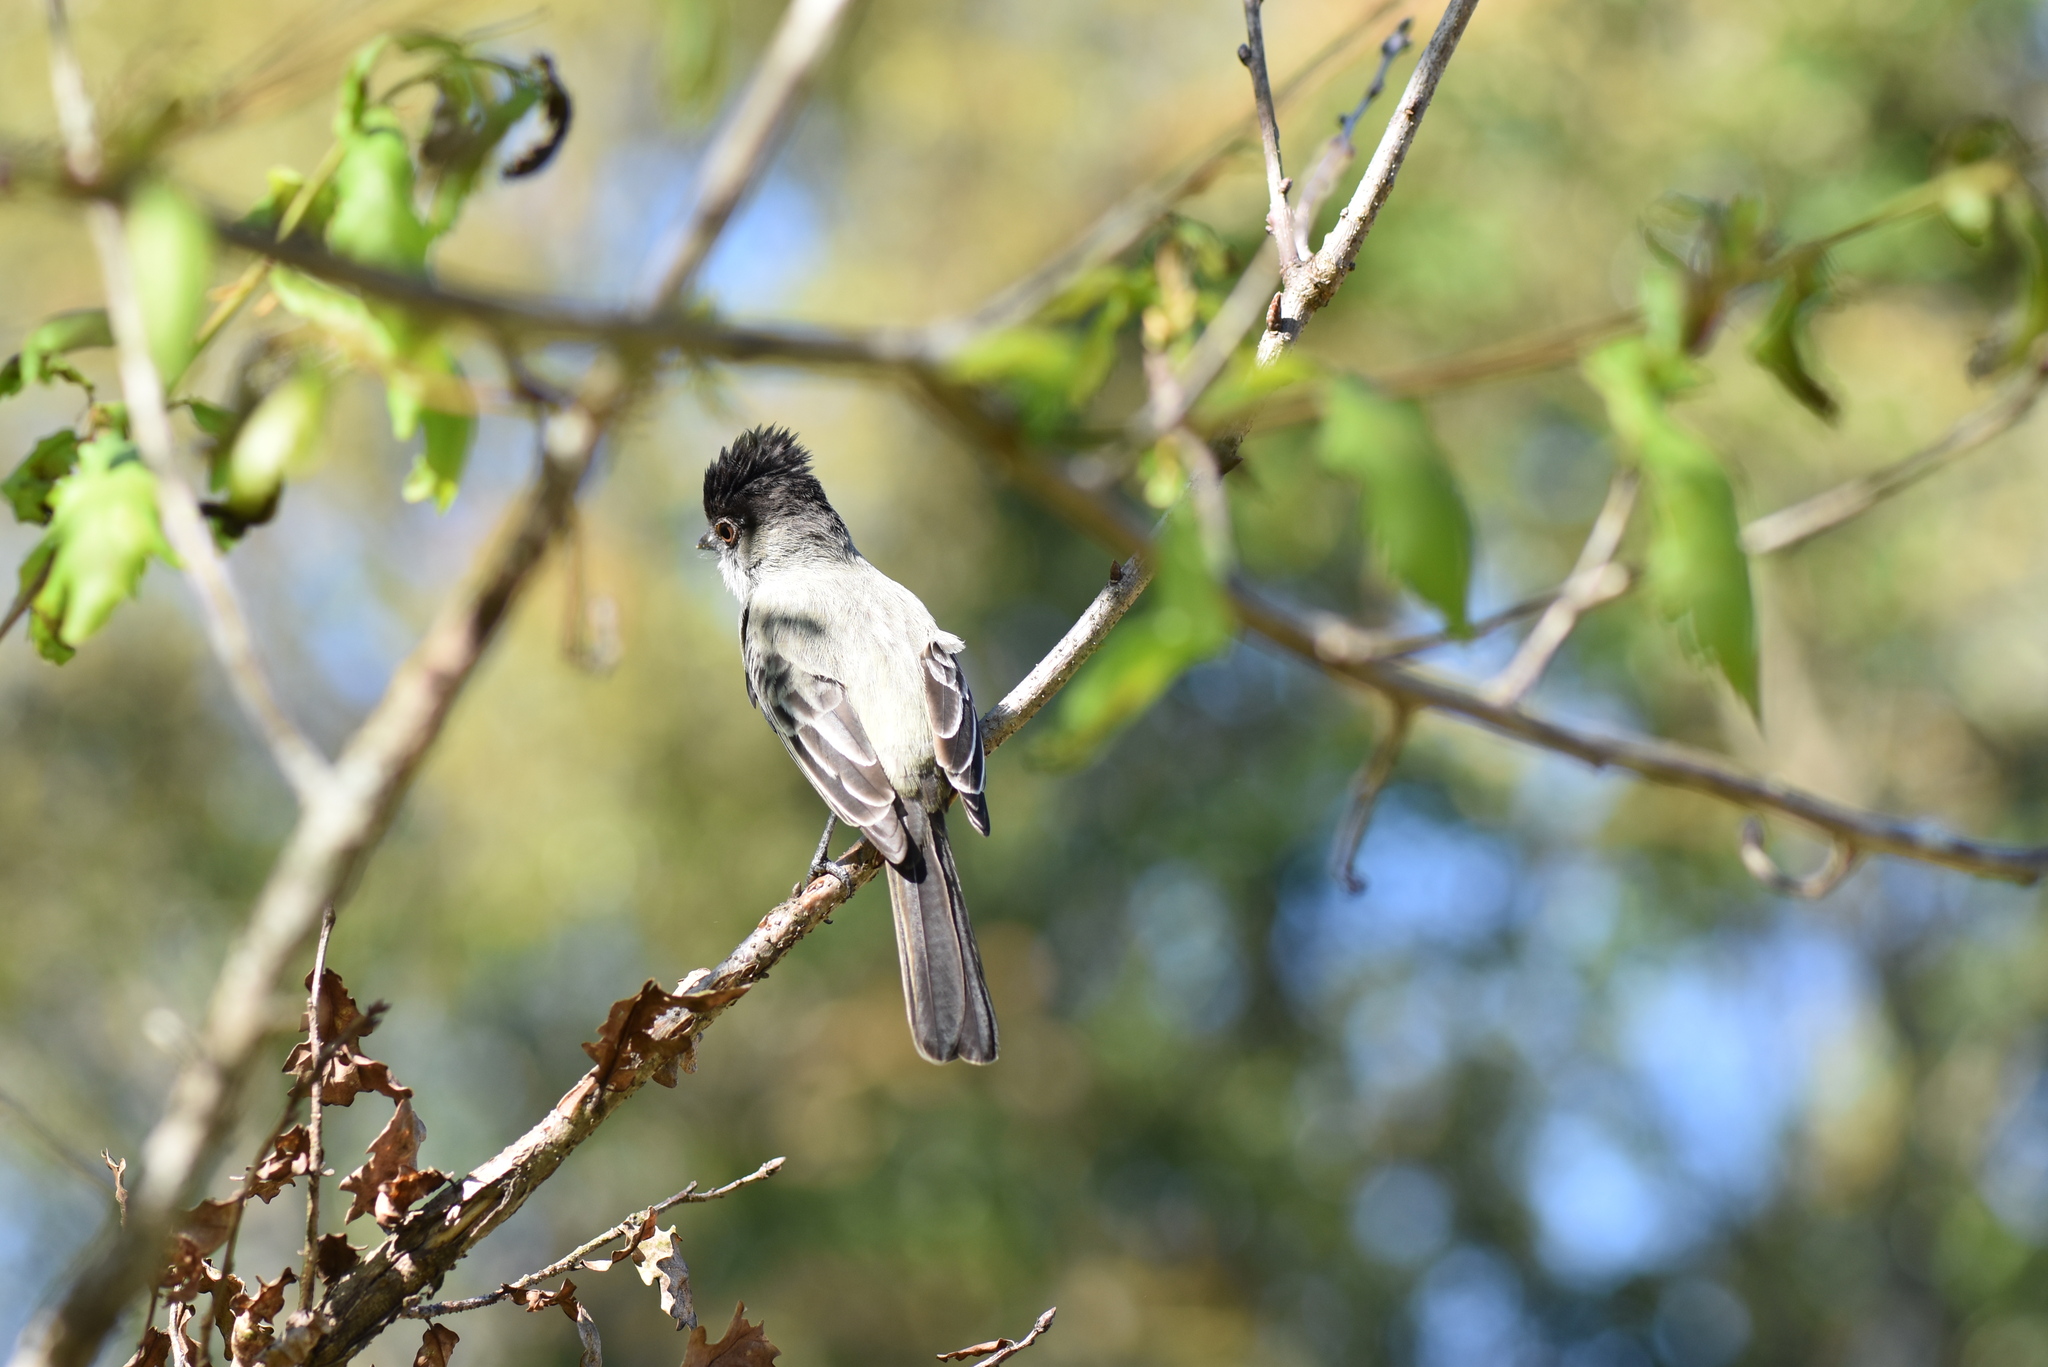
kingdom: Animalia
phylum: Chordata
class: Aves
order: Passeriformes
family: Tyrannidae
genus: Sirystes
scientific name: Sirystes sibilator
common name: Sirystes
